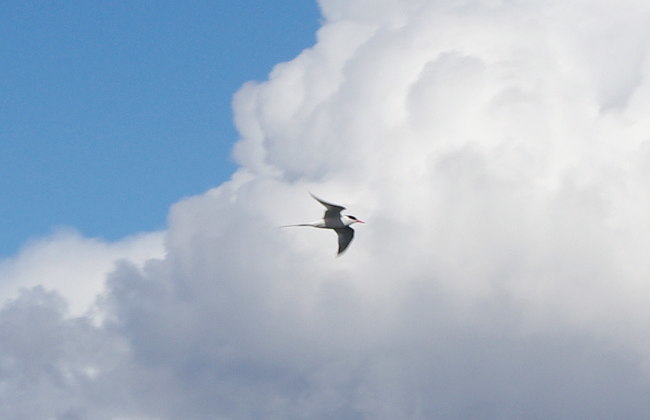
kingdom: Animalia
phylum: Chordata
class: Aves
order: Charadriiformes
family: Laridae
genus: Sterna
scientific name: Sterna hirundinacea
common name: South american tern
